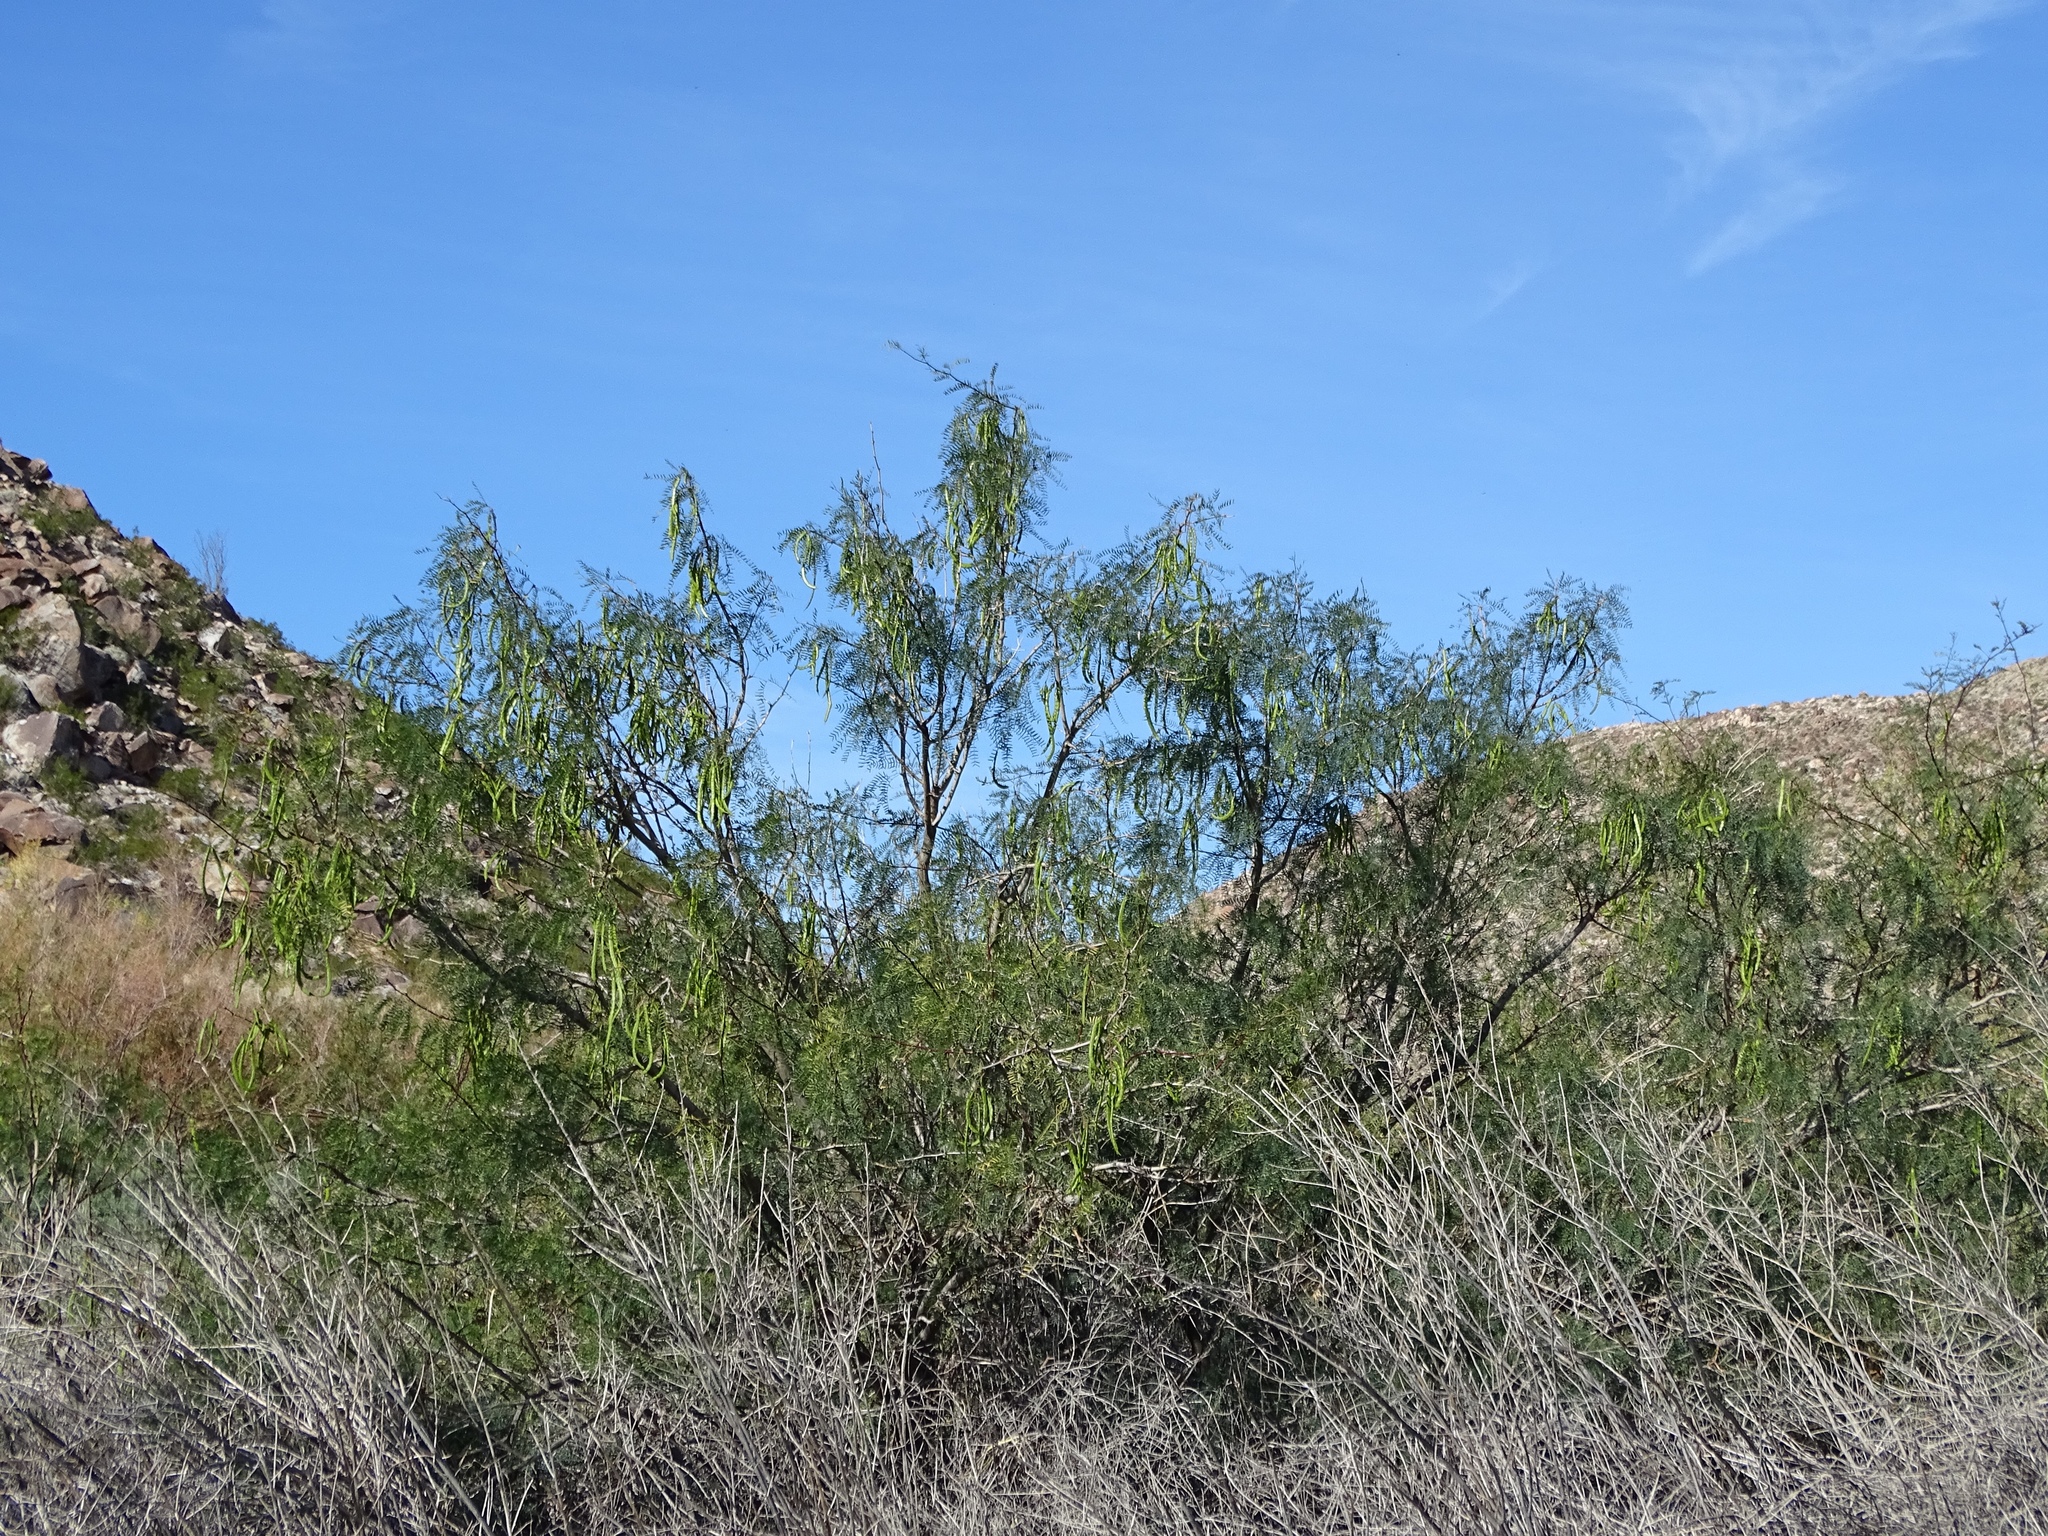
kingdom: Plantae
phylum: Tracheophyta
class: Magnoliopsida
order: Fabales
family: Fabaceae
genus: Prosopis
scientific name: Prosopis pubescens
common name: Screw-bean
